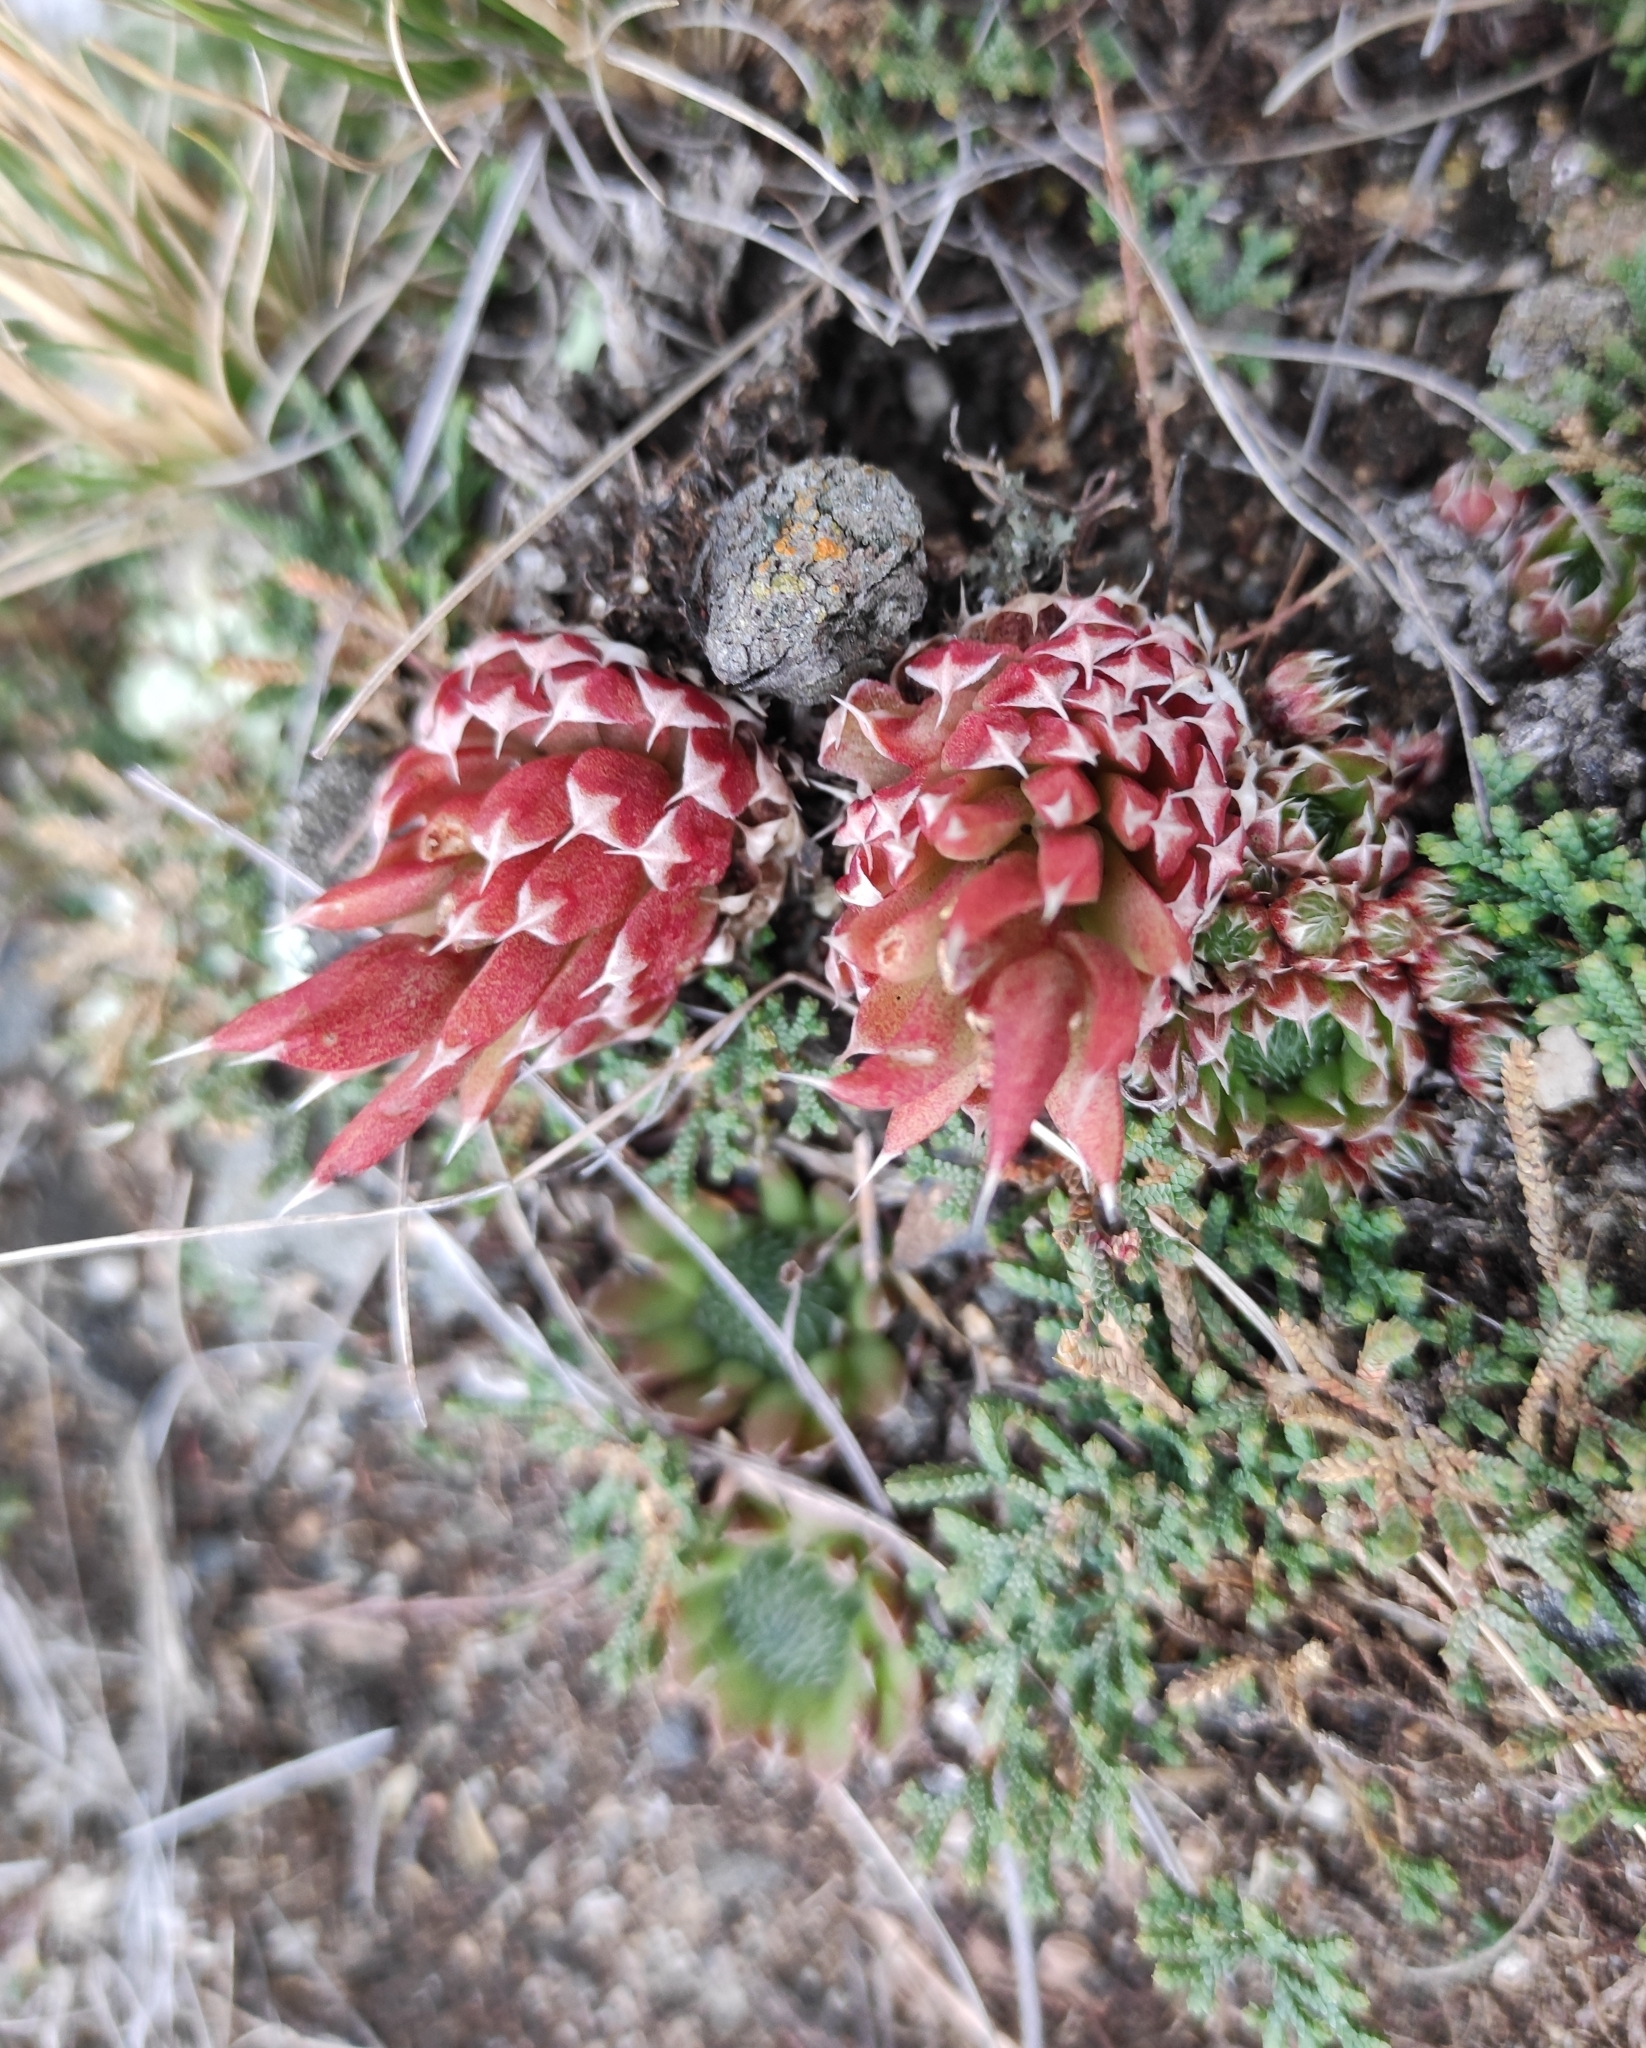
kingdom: Plantae
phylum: Tracheophyta
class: Magnoliopsida
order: Saxifragales
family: Crassulaceae
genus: Orostachys
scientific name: Orostachys spinosa
